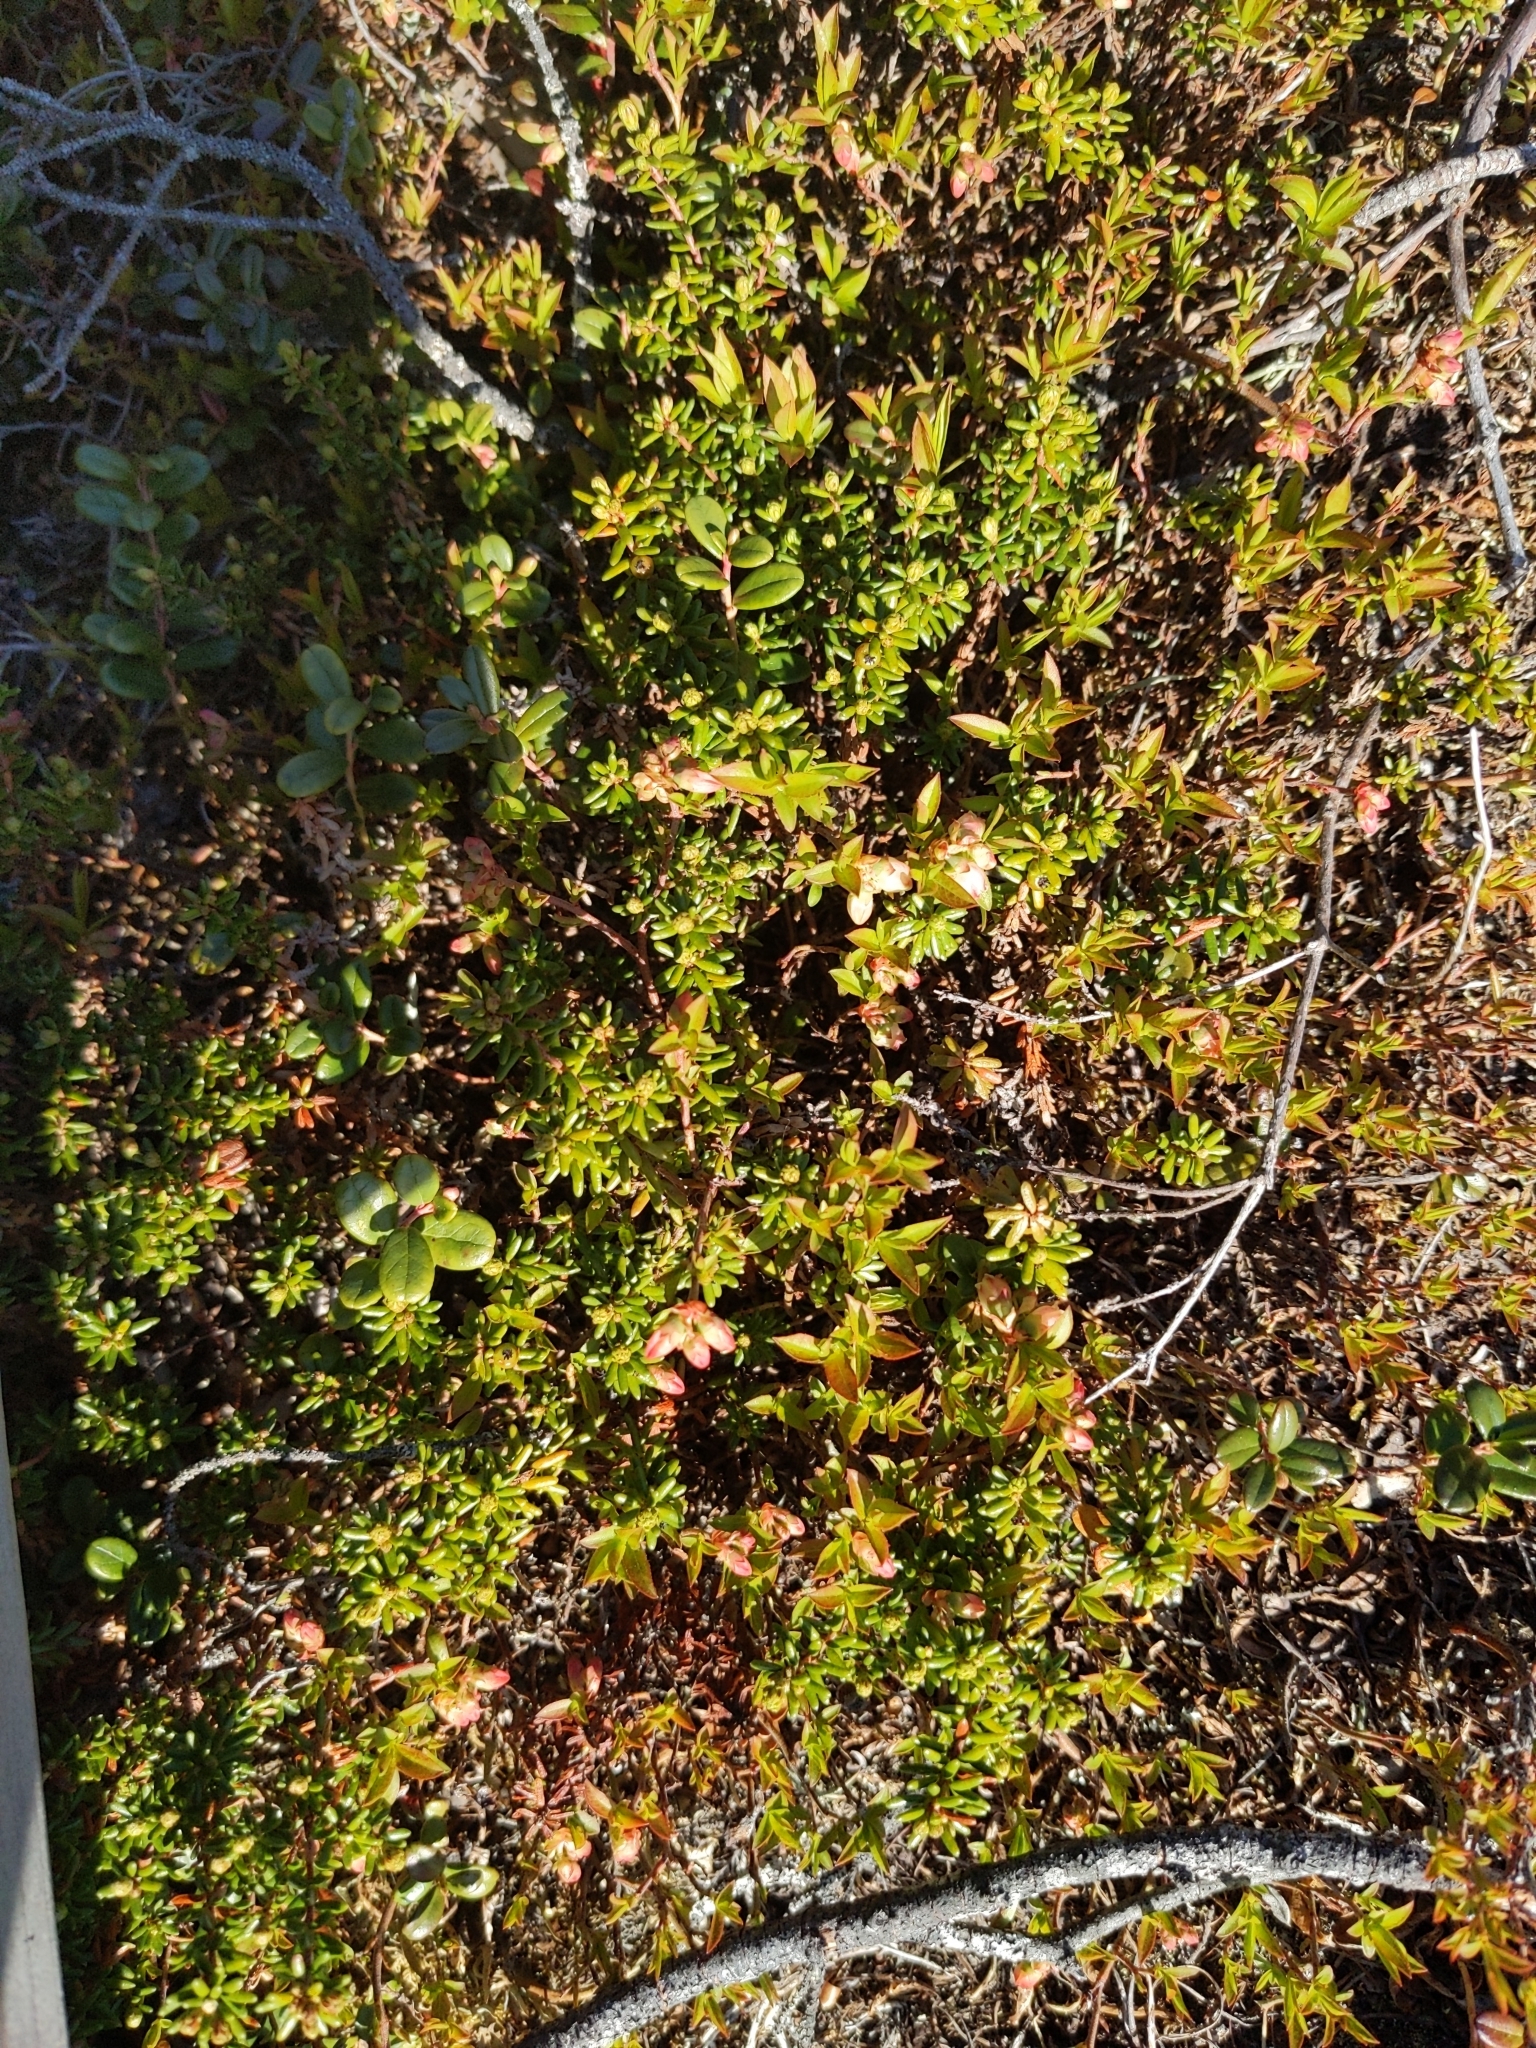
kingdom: Plantae
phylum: Tracheophyta
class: Magnoliopsida
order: Ericales
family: Ericaceae
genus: Vaccinium
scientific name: Vaccinium boreale
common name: Northern blueberry
